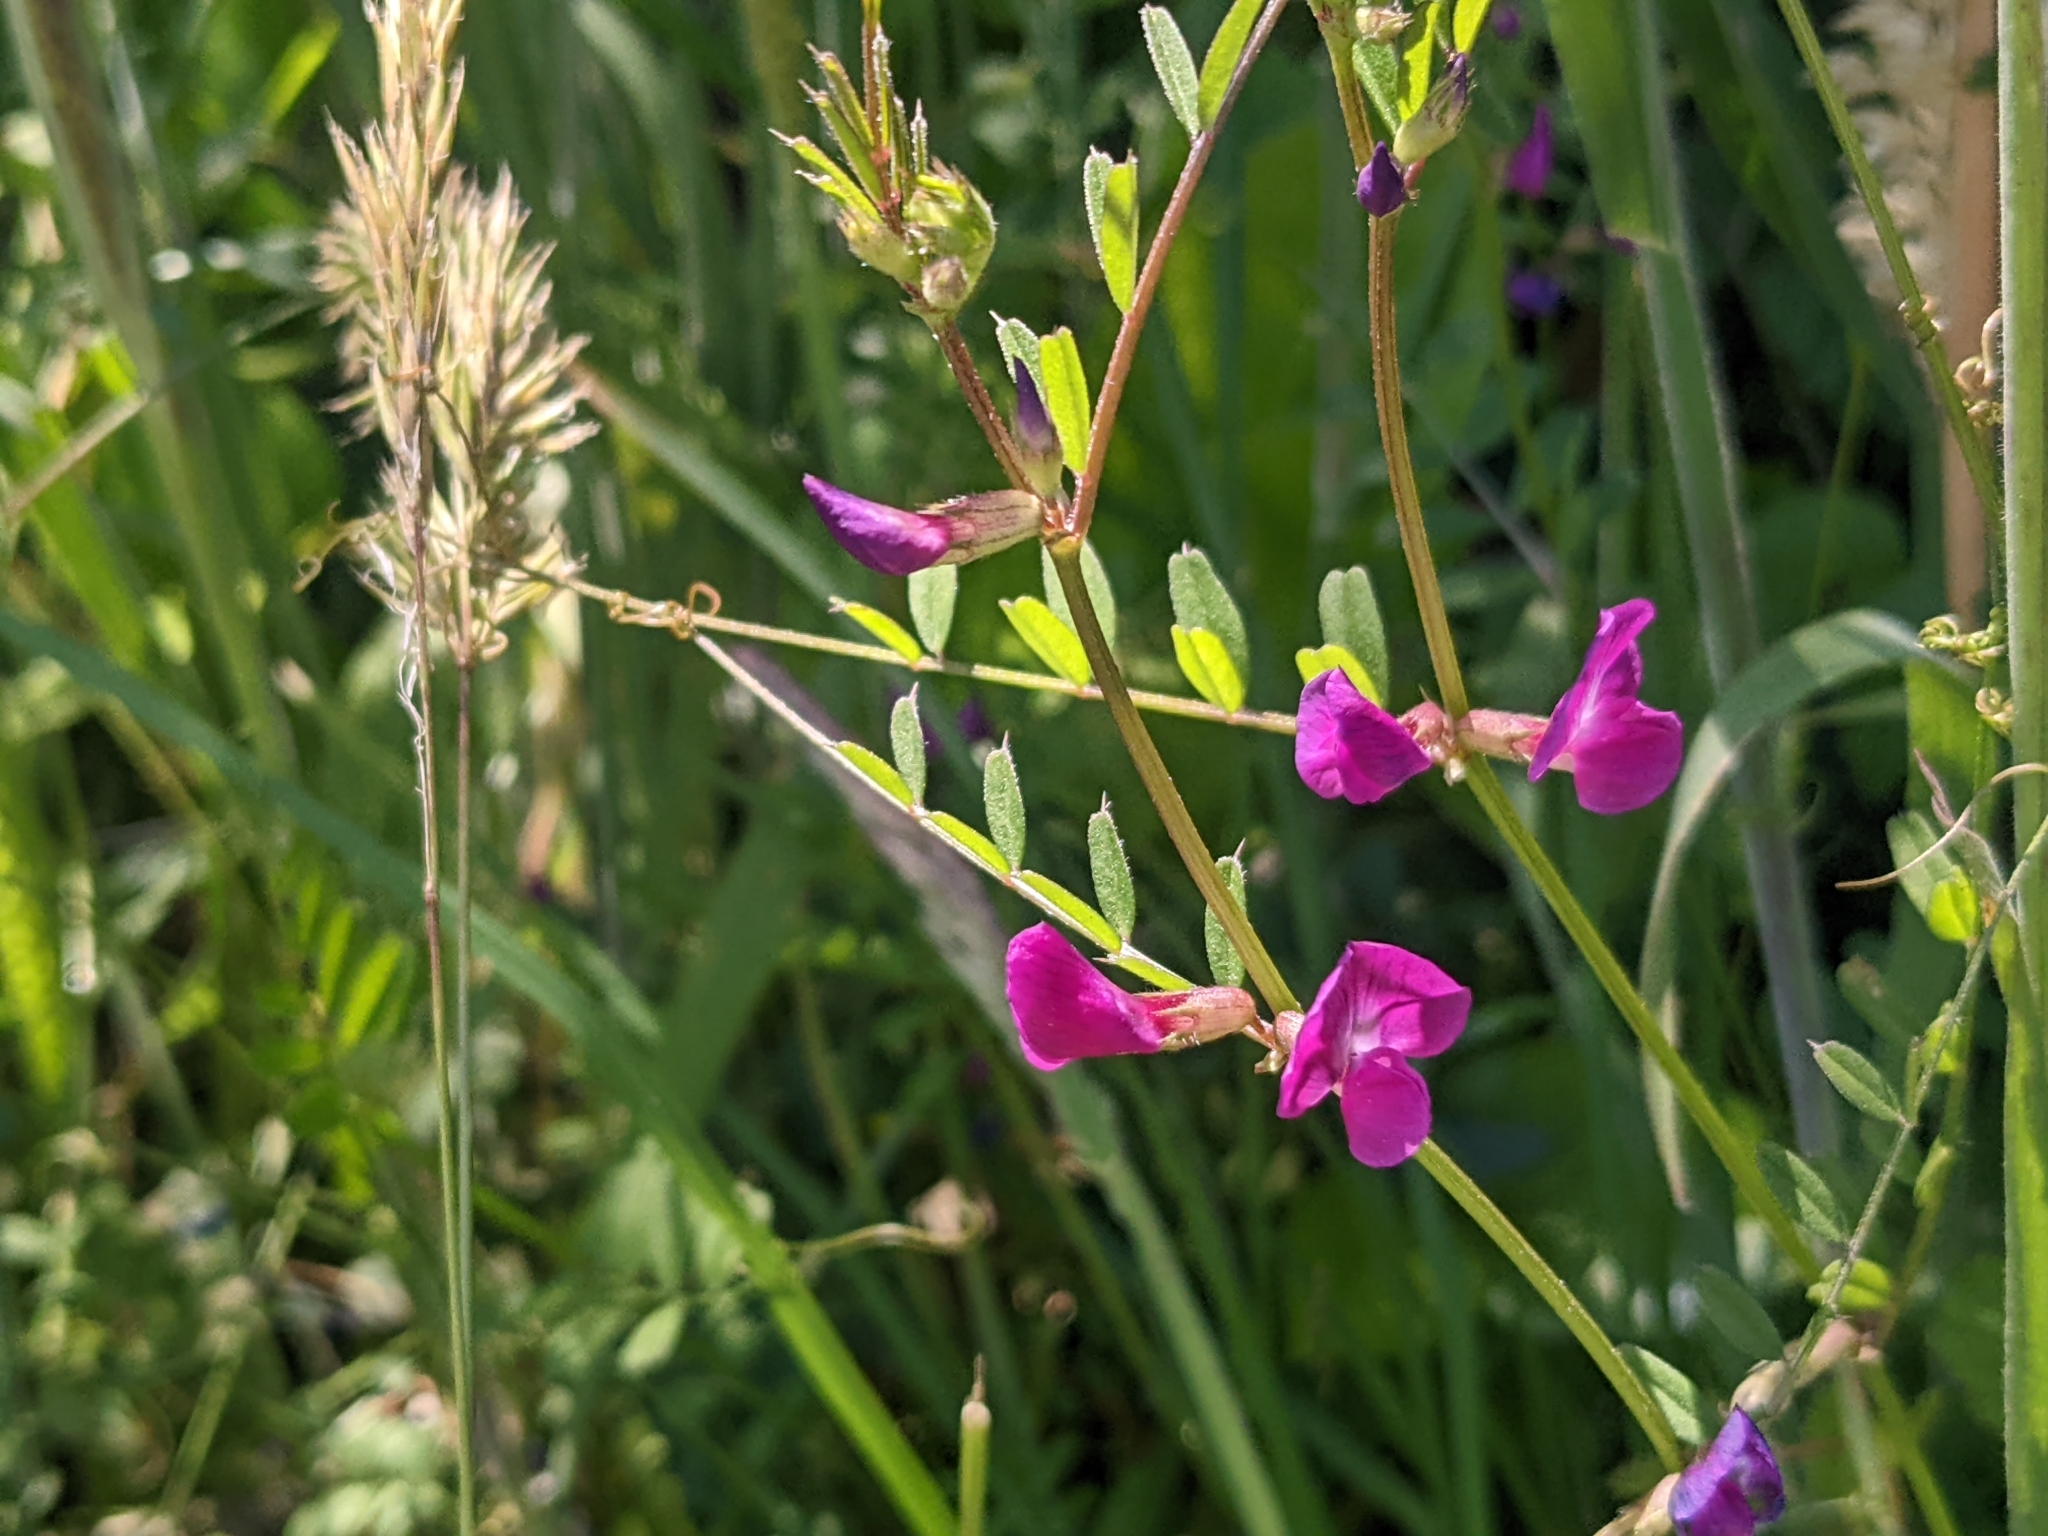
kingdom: Plantae
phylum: Tracheophyta
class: Magnoliopsida
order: Fabales
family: Fabaceae
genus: Vicia
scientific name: Vicia sativa
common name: Garden vetch
